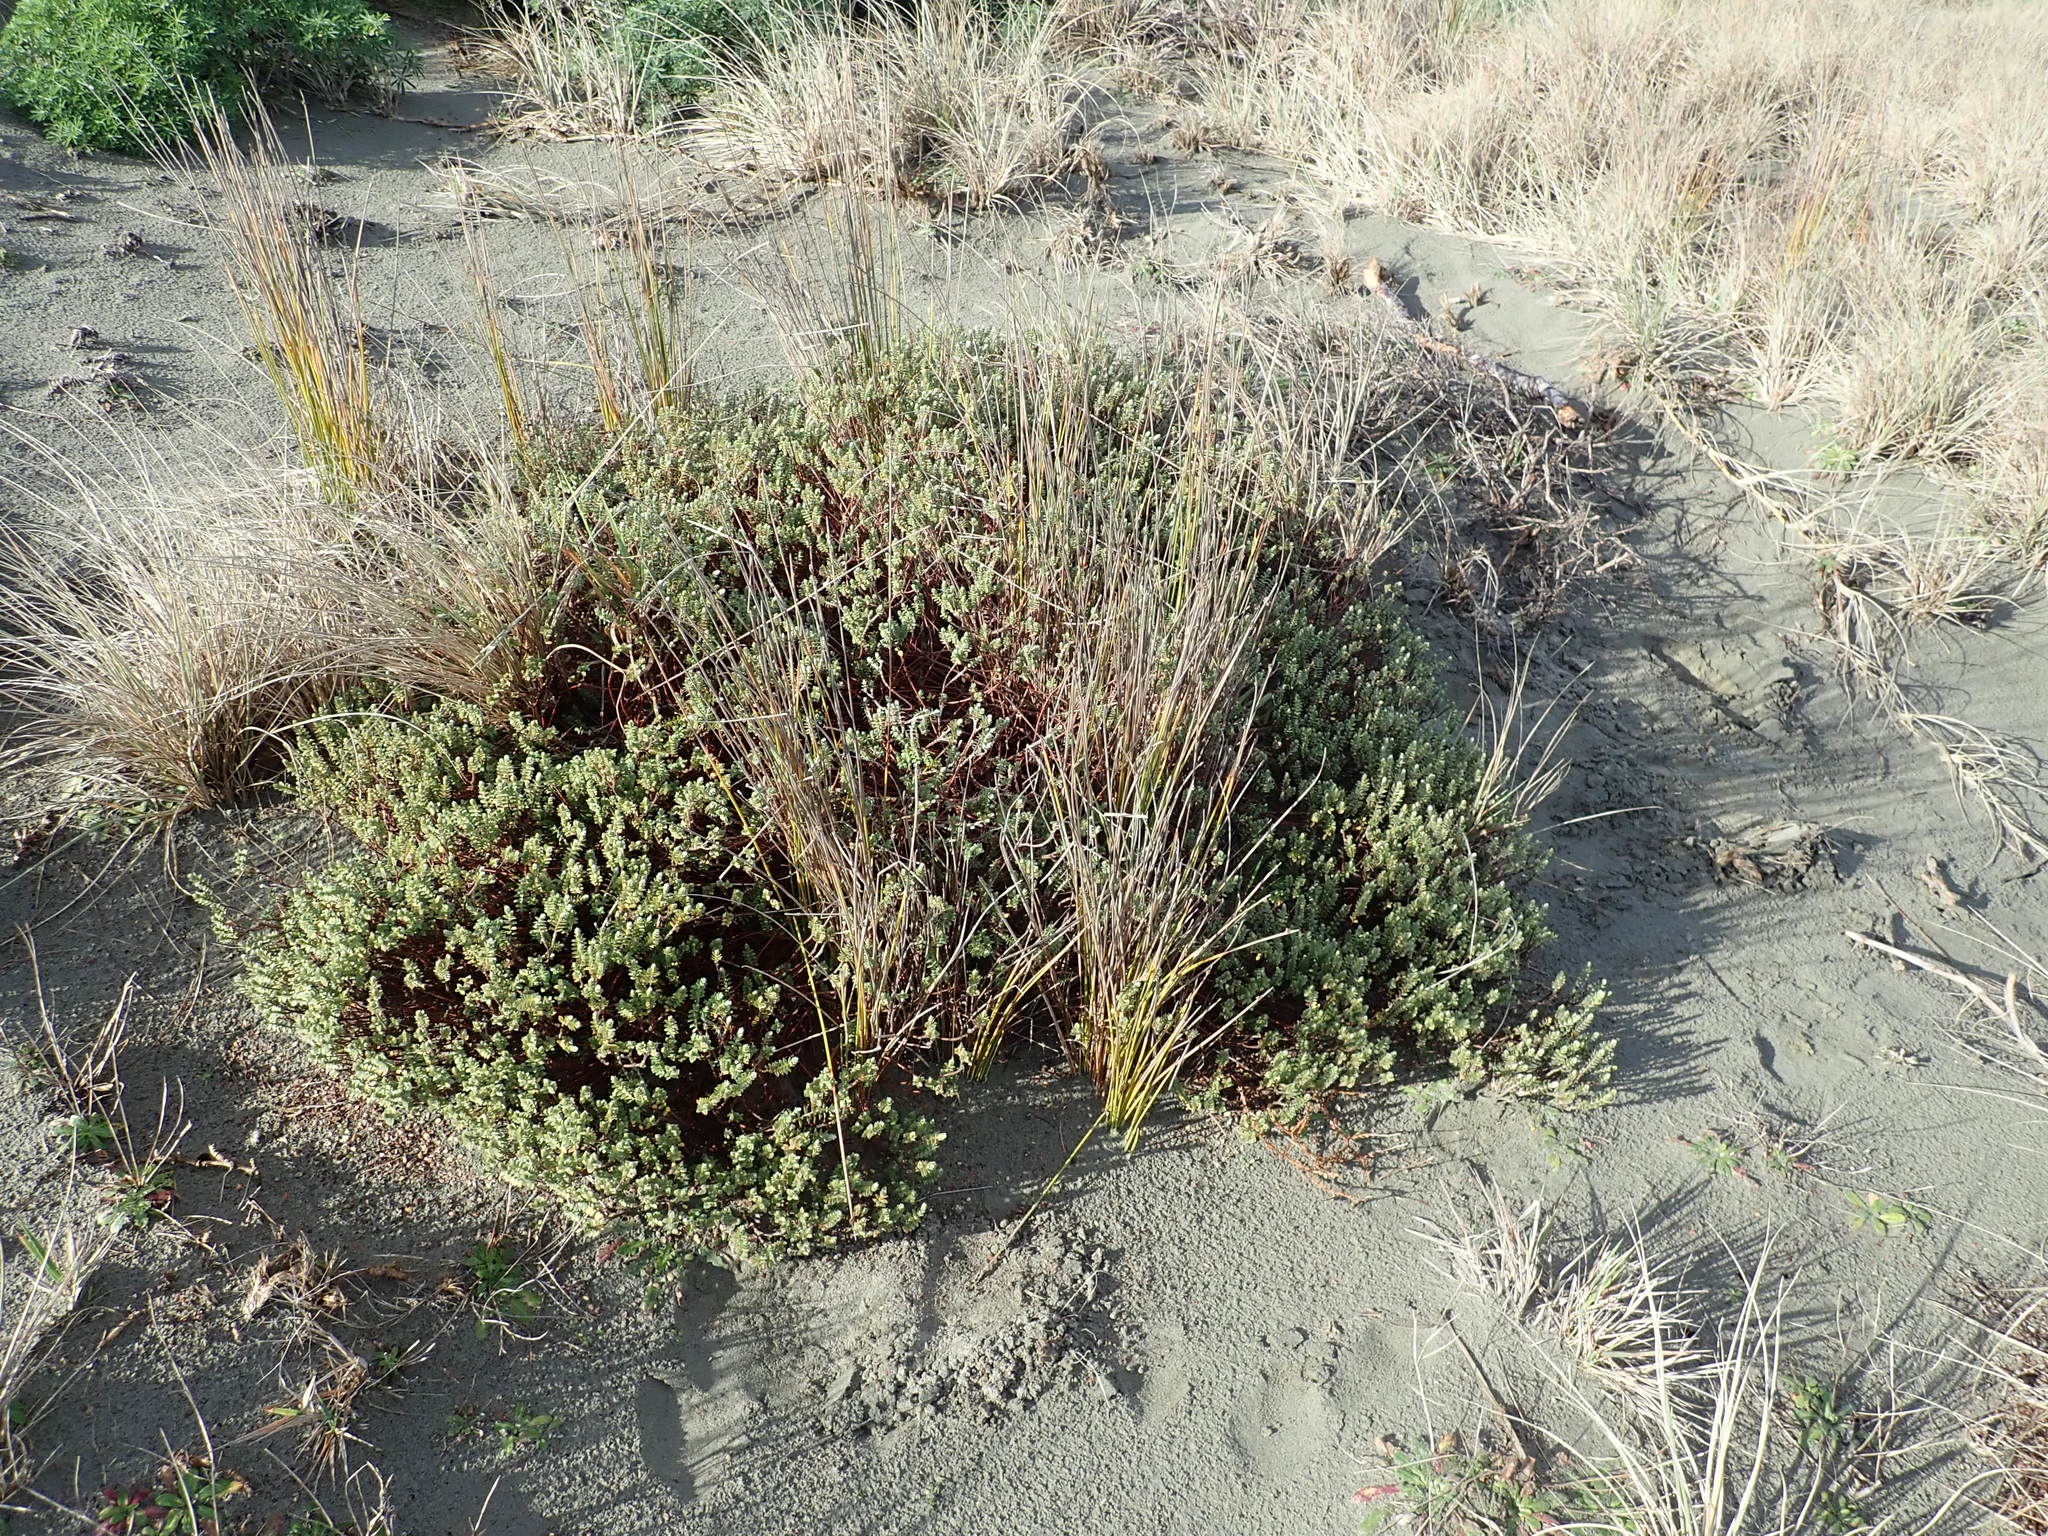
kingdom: Plantae
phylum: Tracheophyta
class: Magnoliopsida
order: Malvales
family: Thymelaeaceae
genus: Pimelea
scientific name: Pimelea villosa
